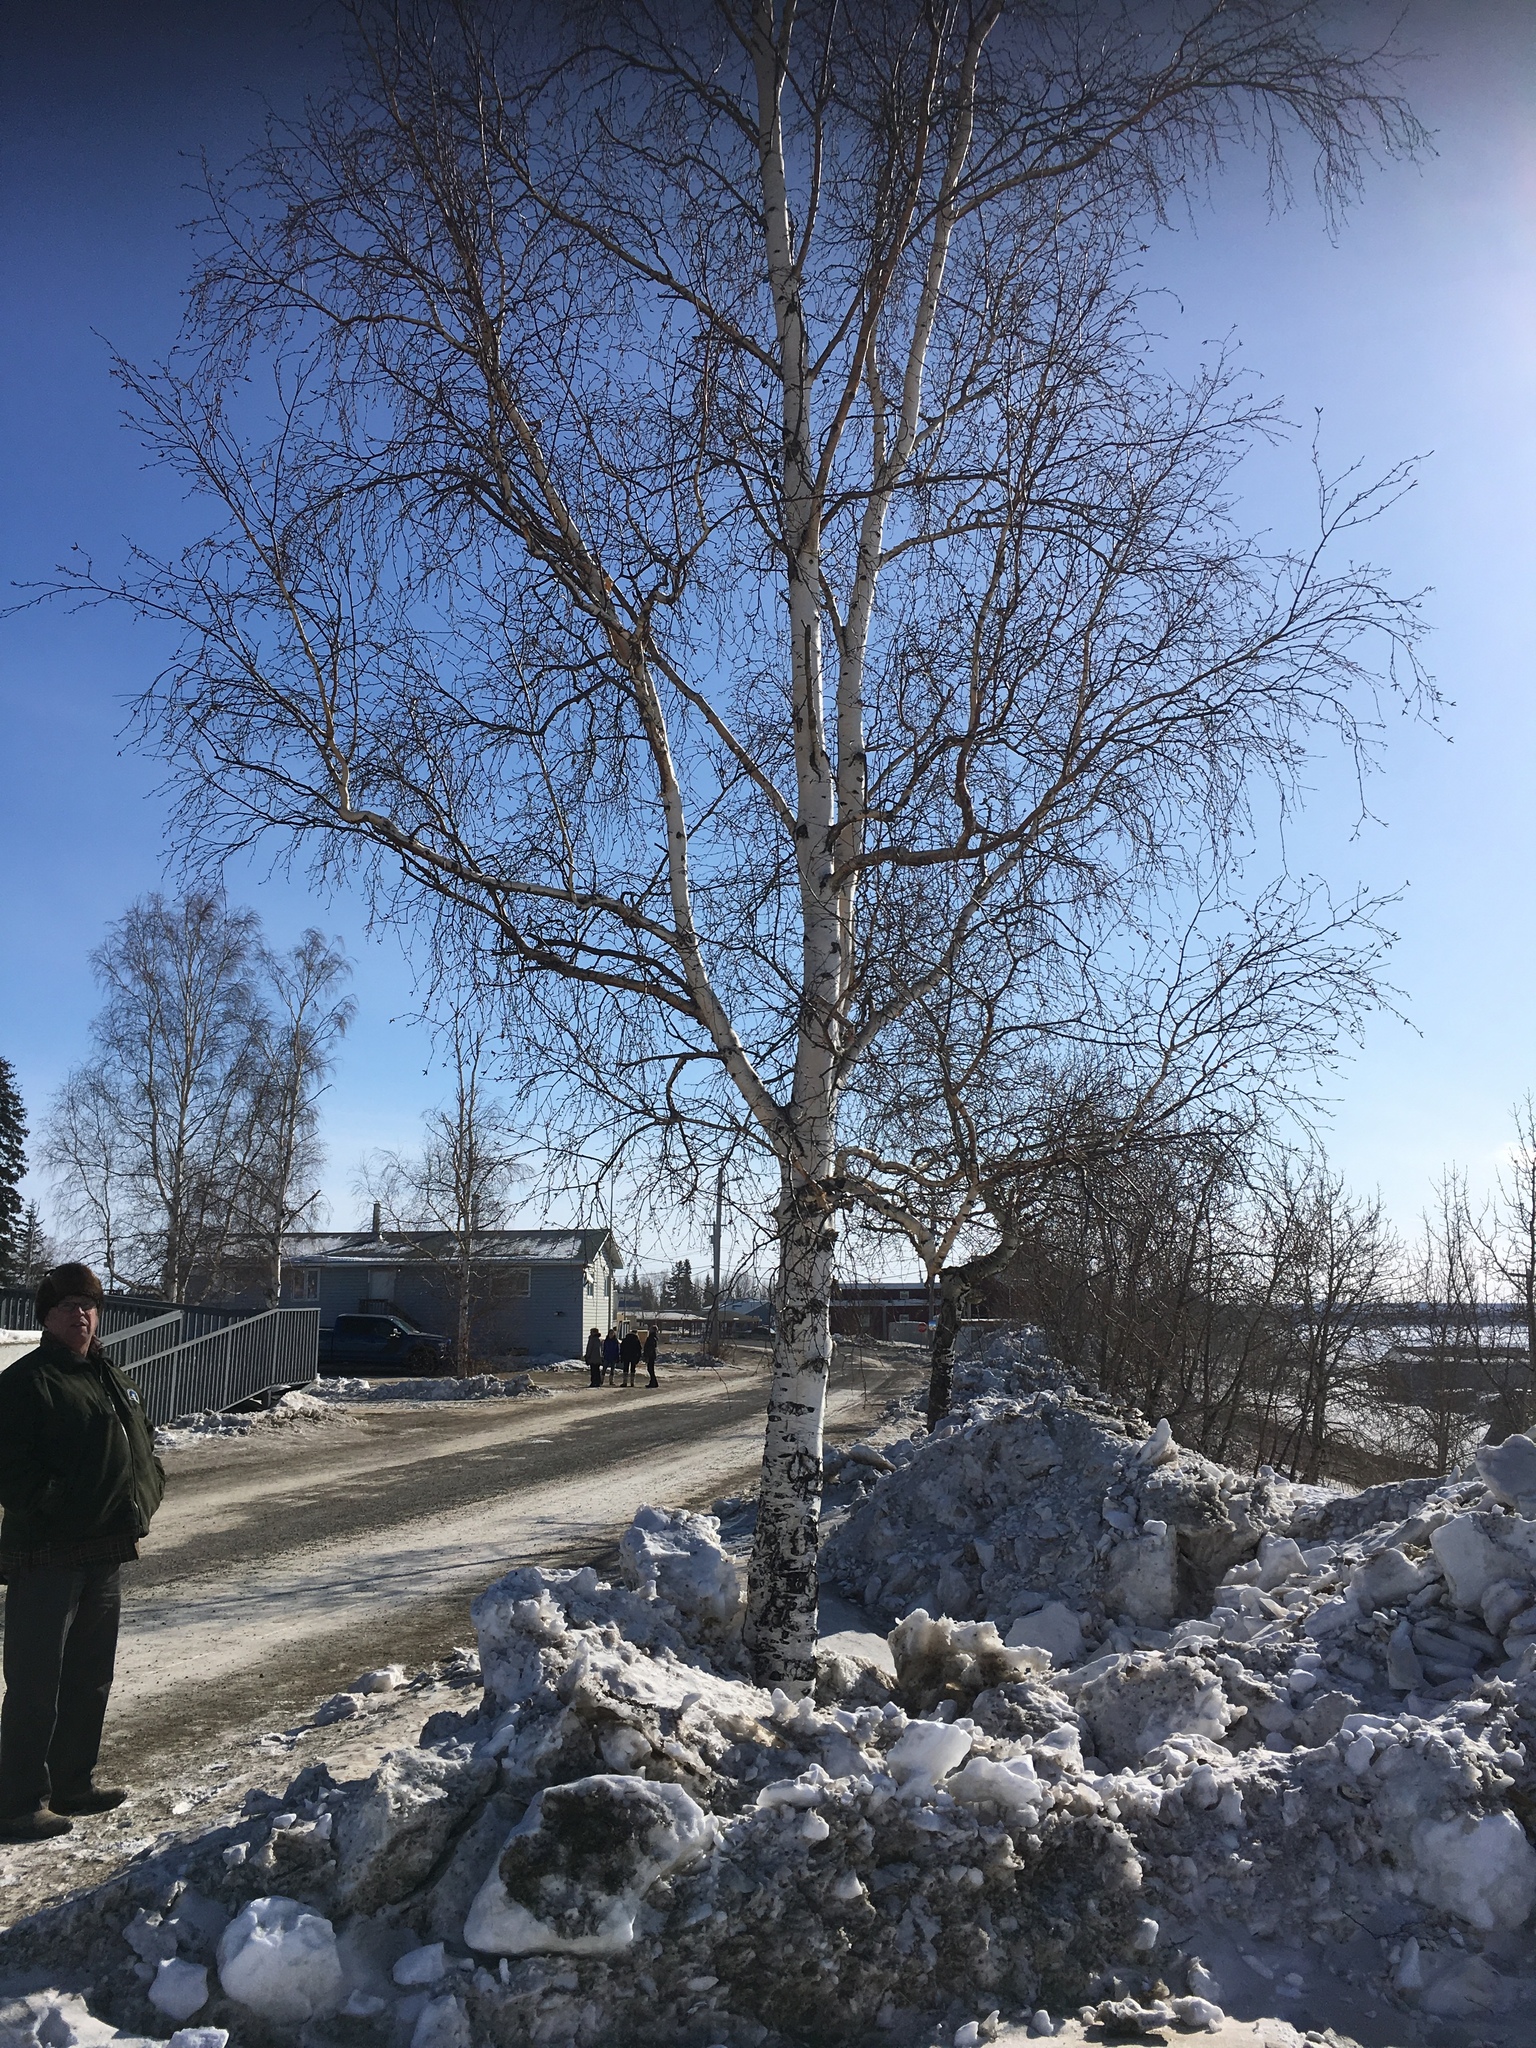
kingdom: Plantae
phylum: Tracheophyta
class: Magnoliopsida
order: Fagales
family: Betulaceae
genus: Betula
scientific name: Betula pendula
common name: Silver birch
